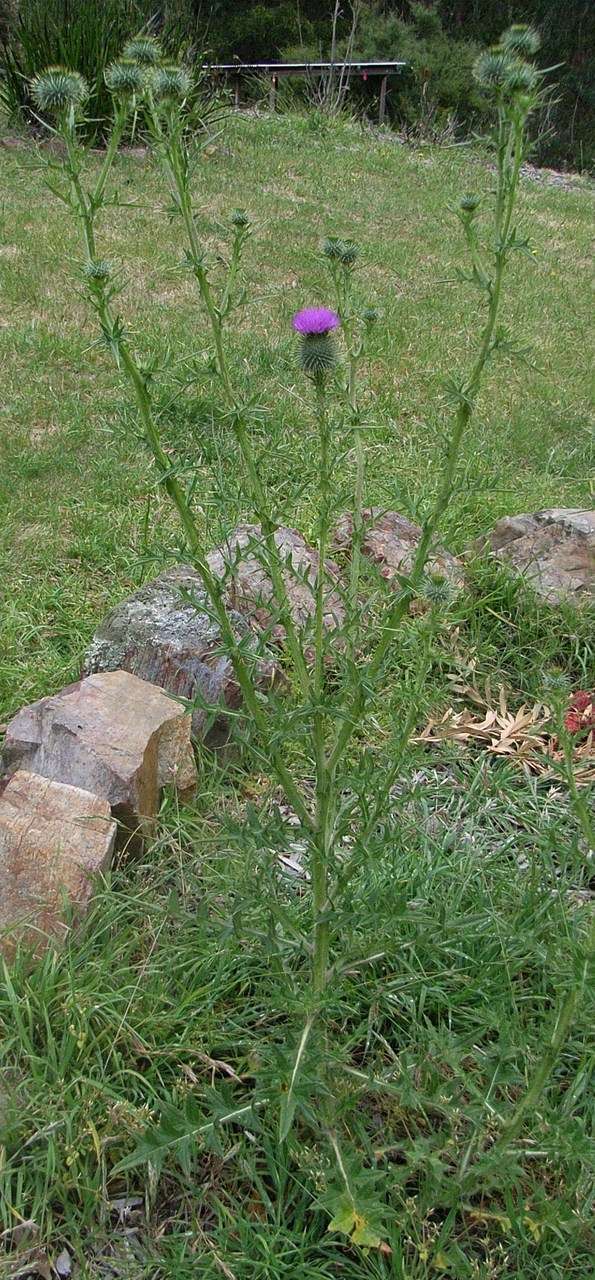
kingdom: Plantae
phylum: Tracheophyta
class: Magnoliopsida
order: Asterales
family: Asteraceae
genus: Cirsium
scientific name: Cirsium vulgare
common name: Bull thistle
